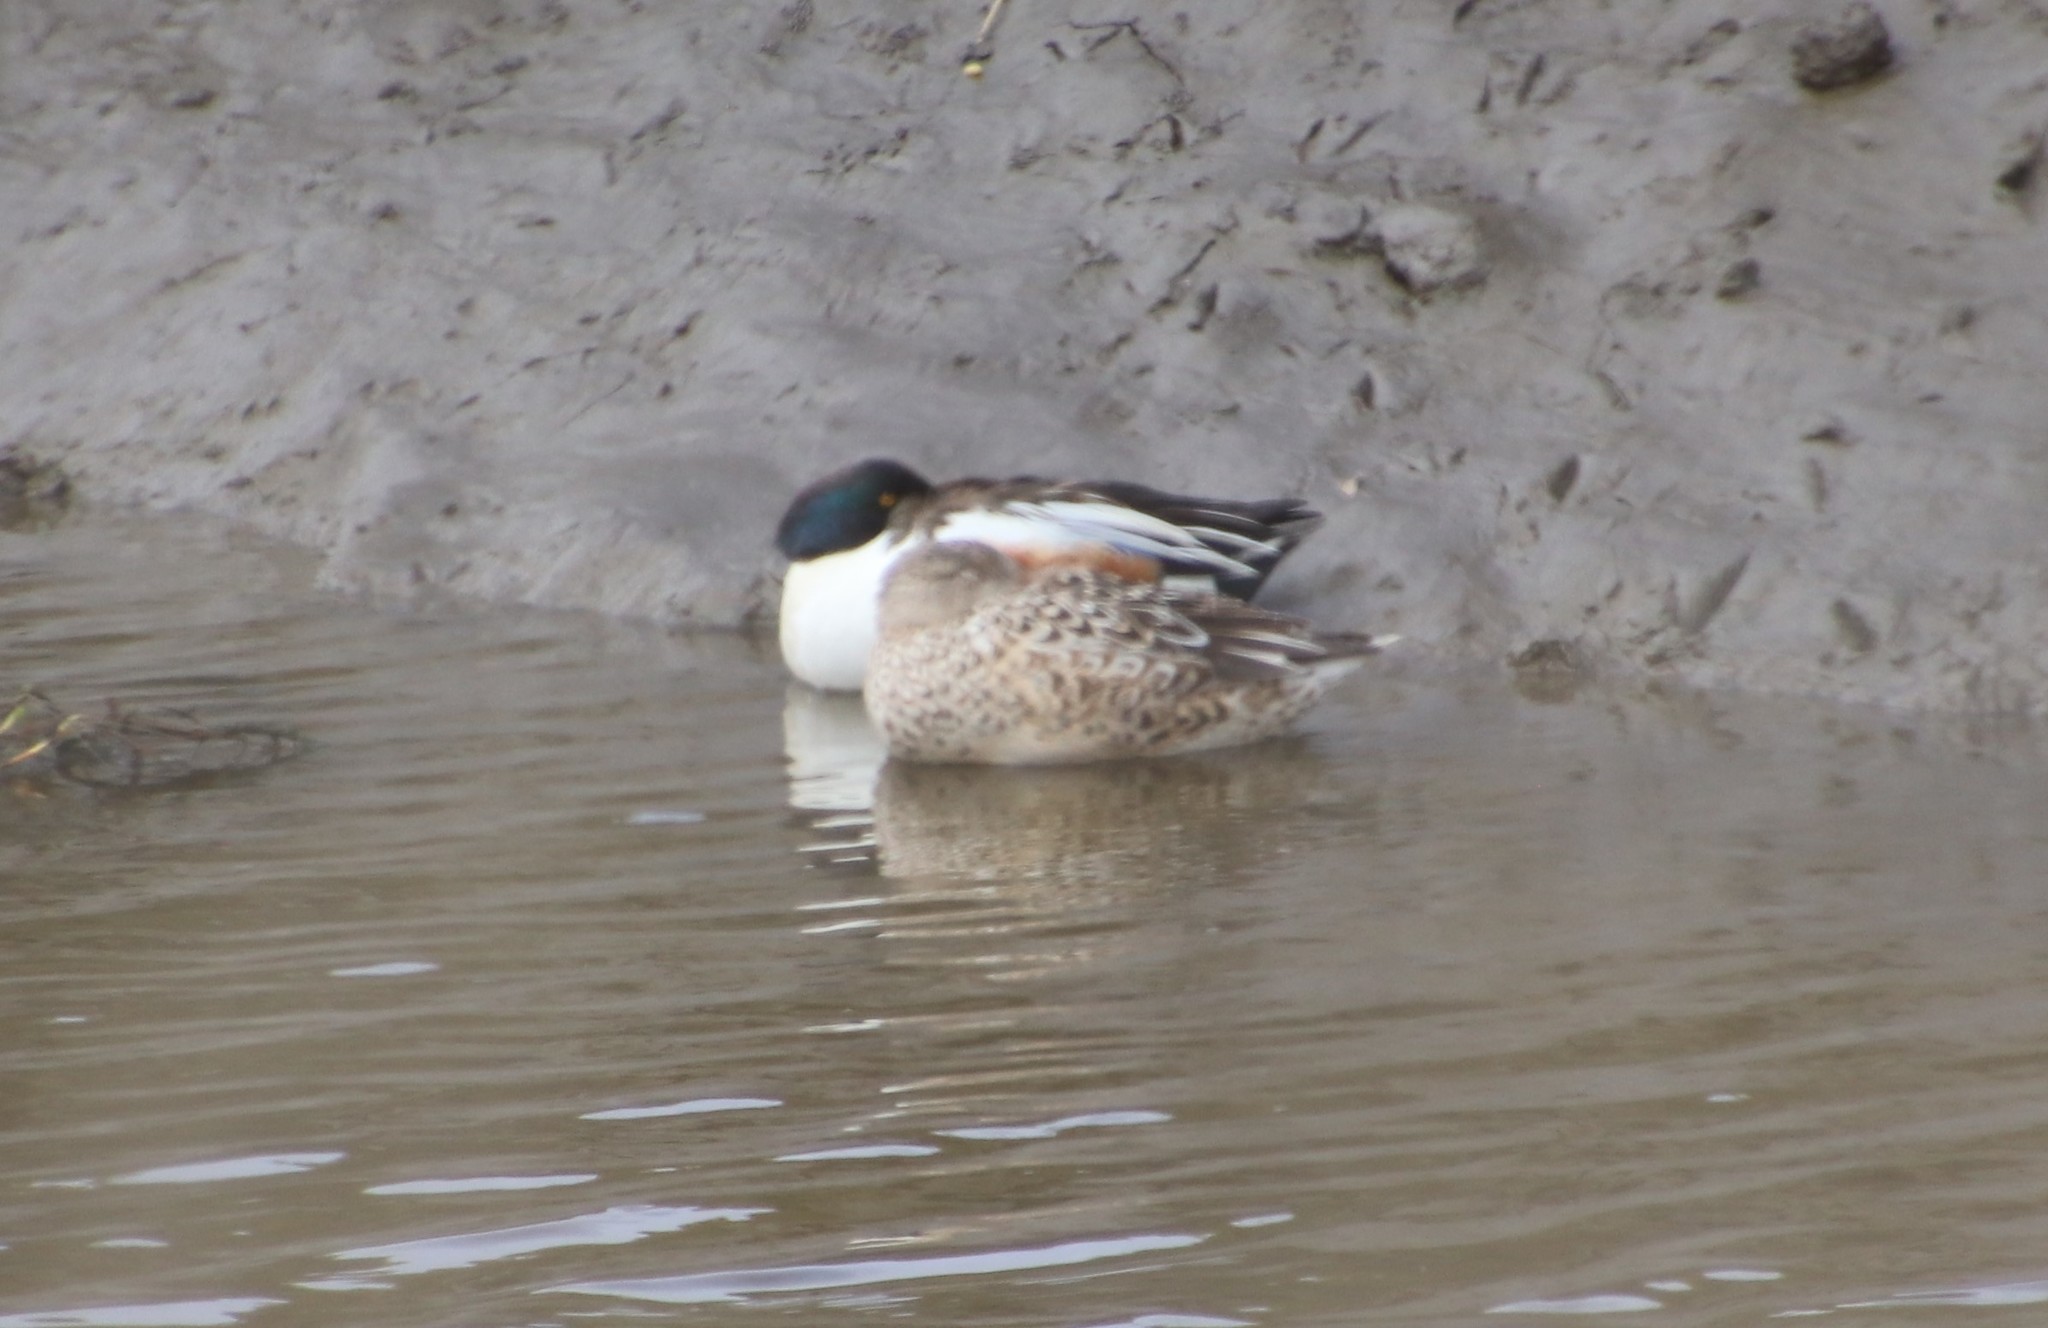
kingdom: Animalia
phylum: Chordata
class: Aves
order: Anseriformes
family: Anatidae
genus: Spatula
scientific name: Spatula clypeata
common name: Northern shoveler
